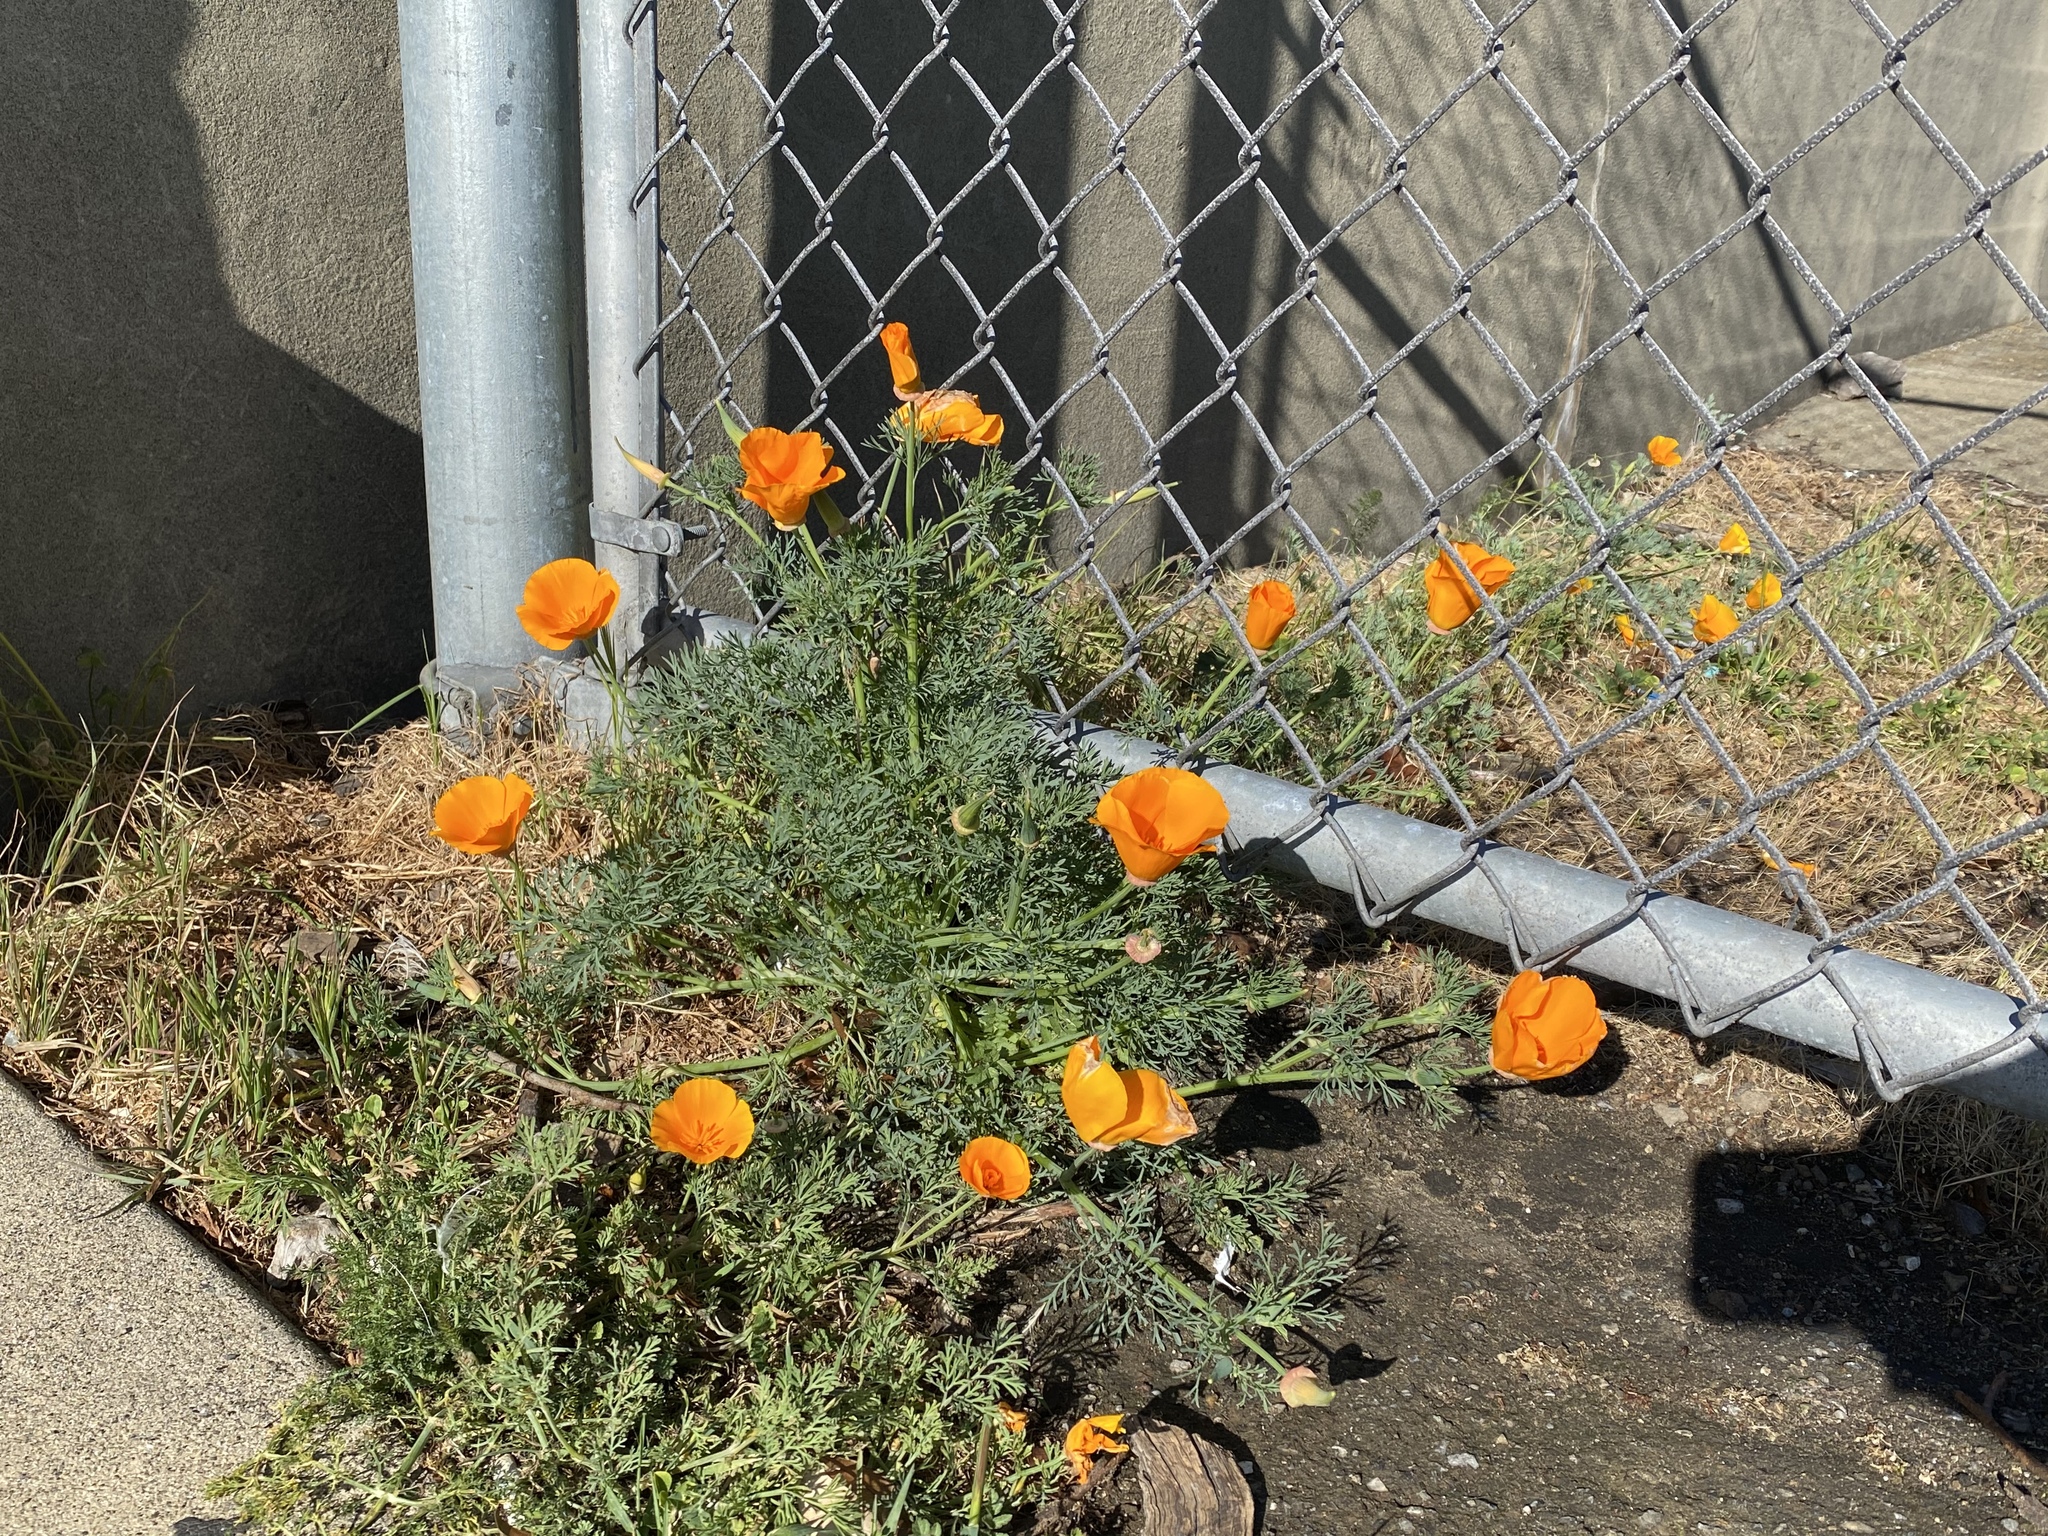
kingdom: Plantae
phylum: Tracheophyta
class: Magnoliopsida
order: Ranunculales
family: Papaveraceae
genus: Eschscholzia
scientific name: Eschscholzia californica
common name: California poppy
